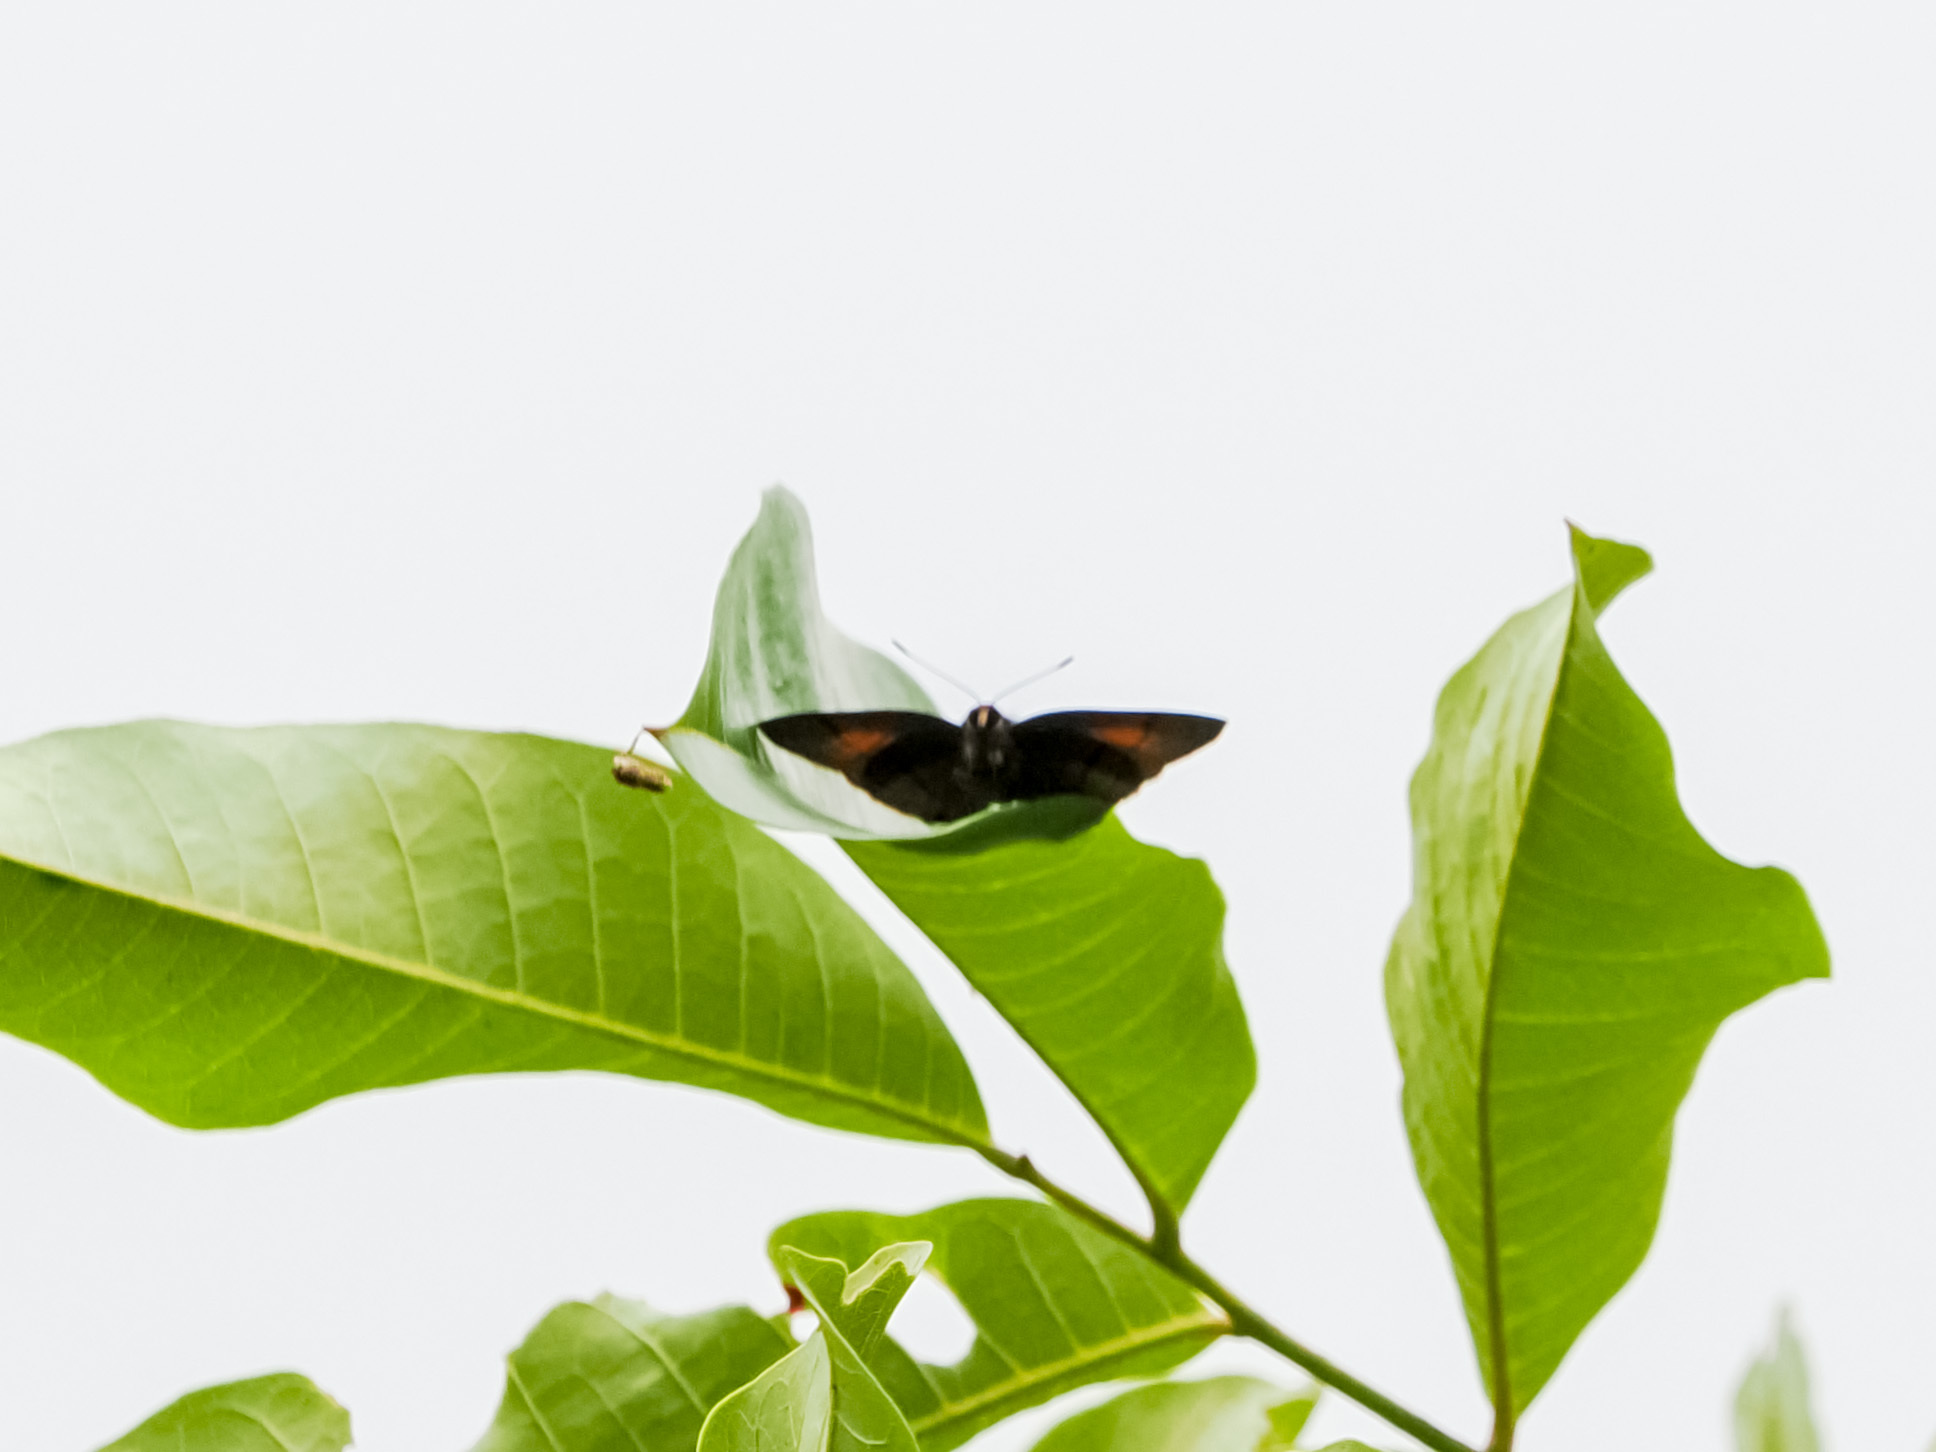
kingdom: Animalia
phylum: Arthropoda
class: Insecta
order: Lepidoptera
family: Lycaenidae
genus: Rapala
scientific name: Rapala nissa
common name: Common flash
